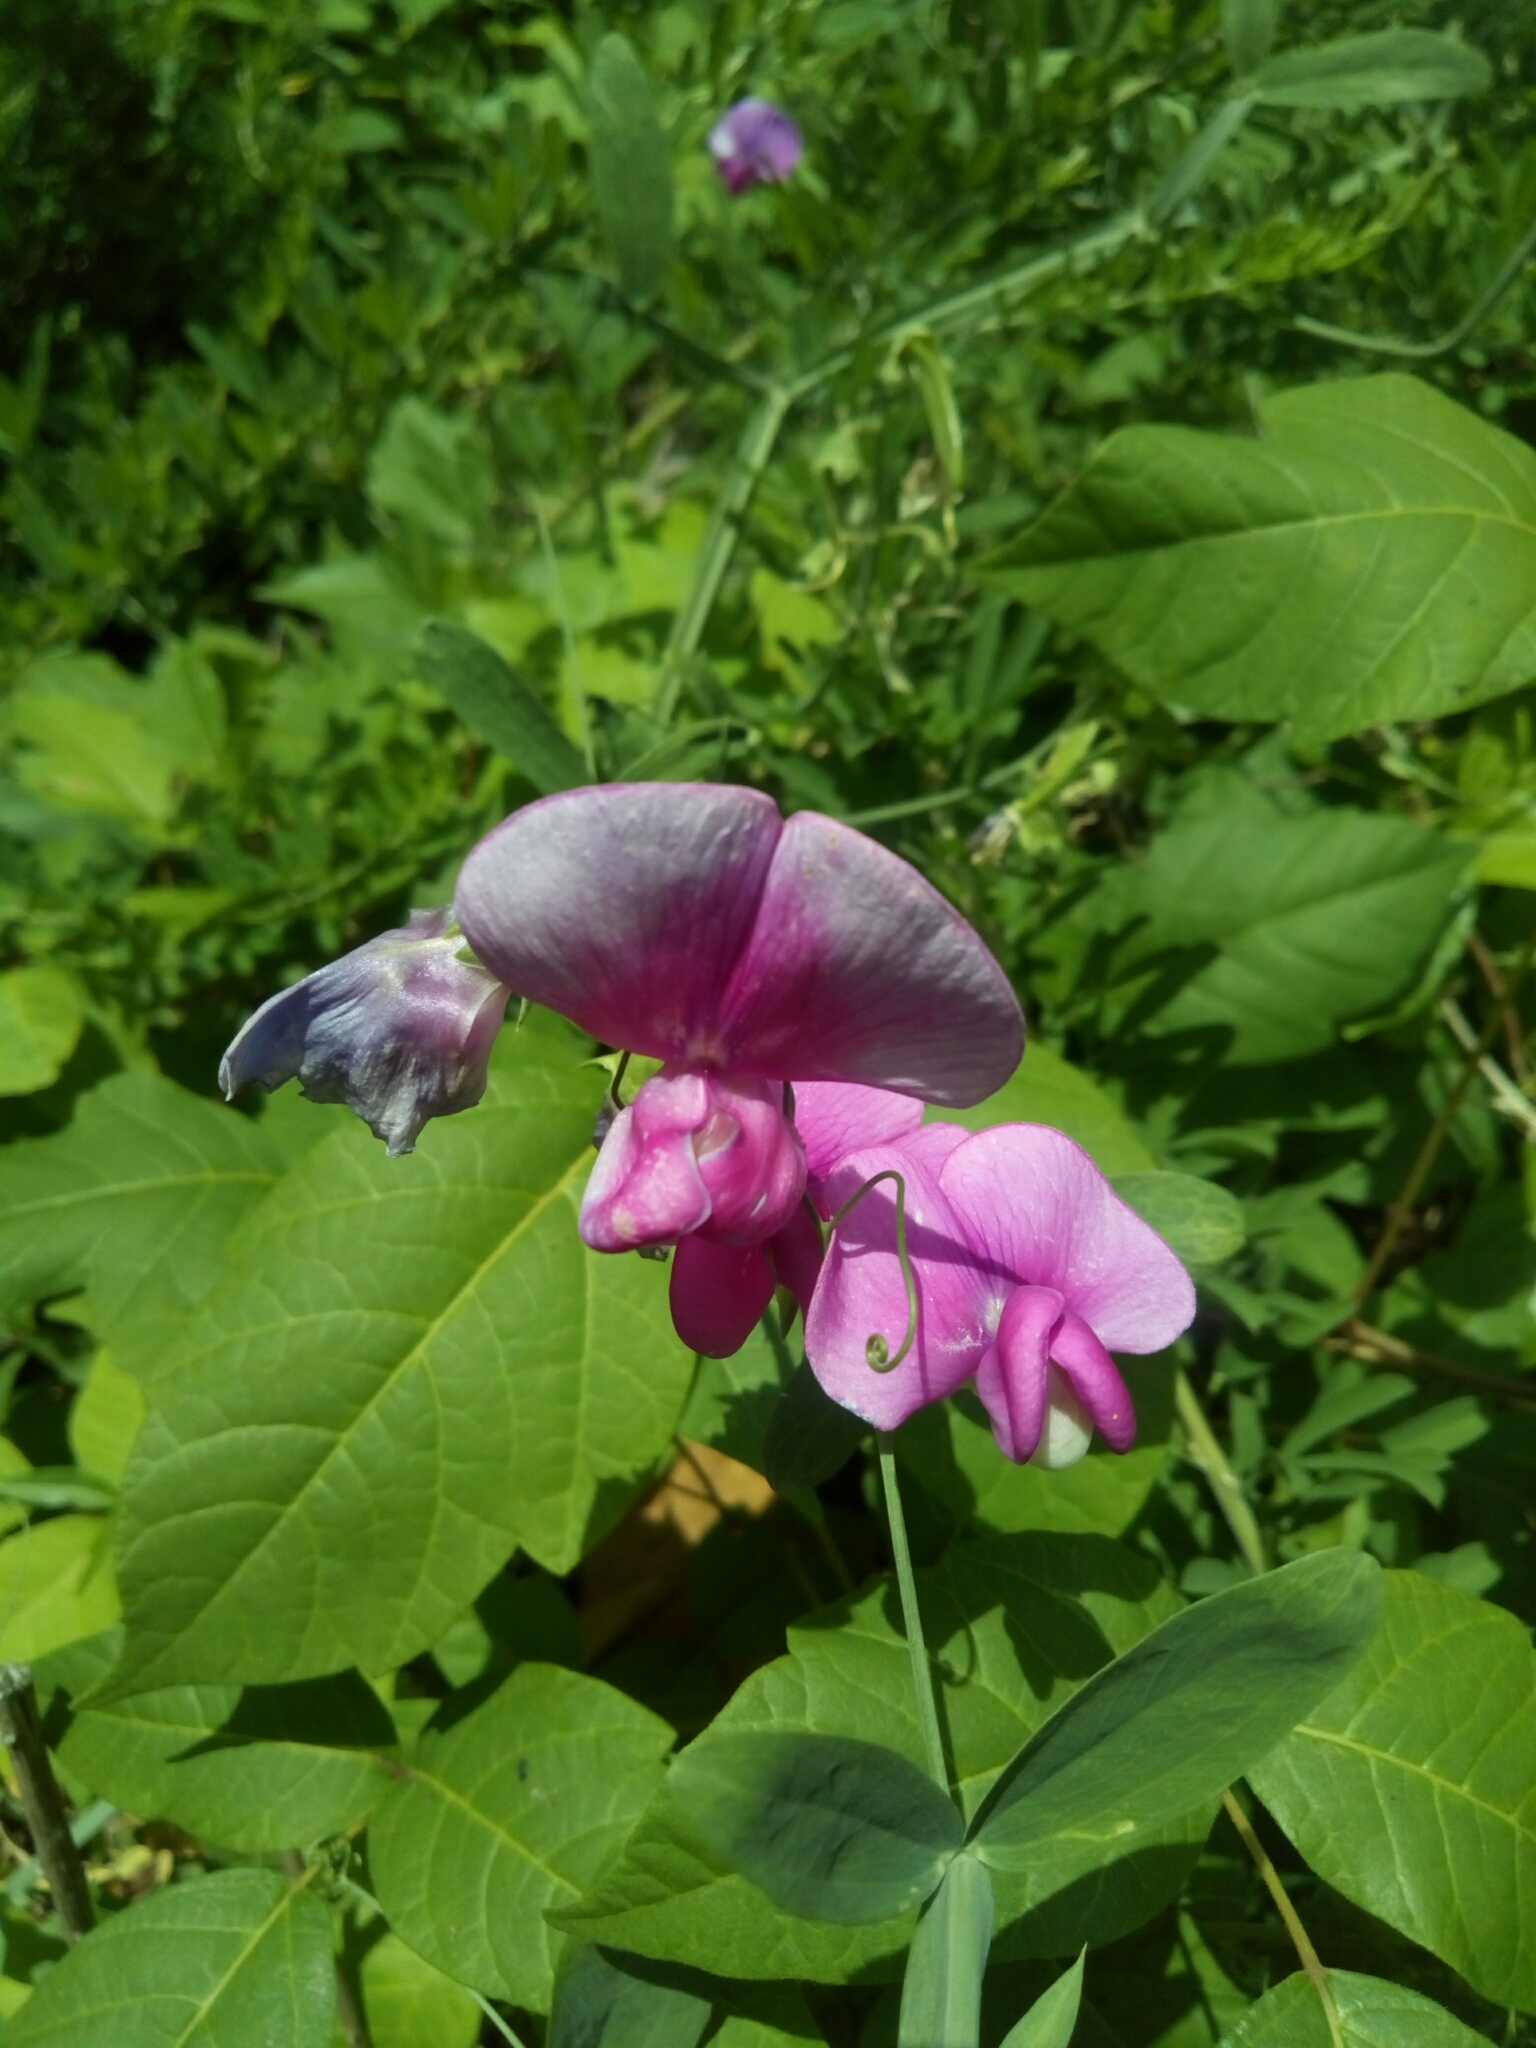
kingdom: Plantae
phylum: Tracheophyta
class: Magnoliopsida
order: Fabales
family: Fabaceae
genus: Lathyrus
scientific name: Lathyrus latifolius
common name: Perennial pea
